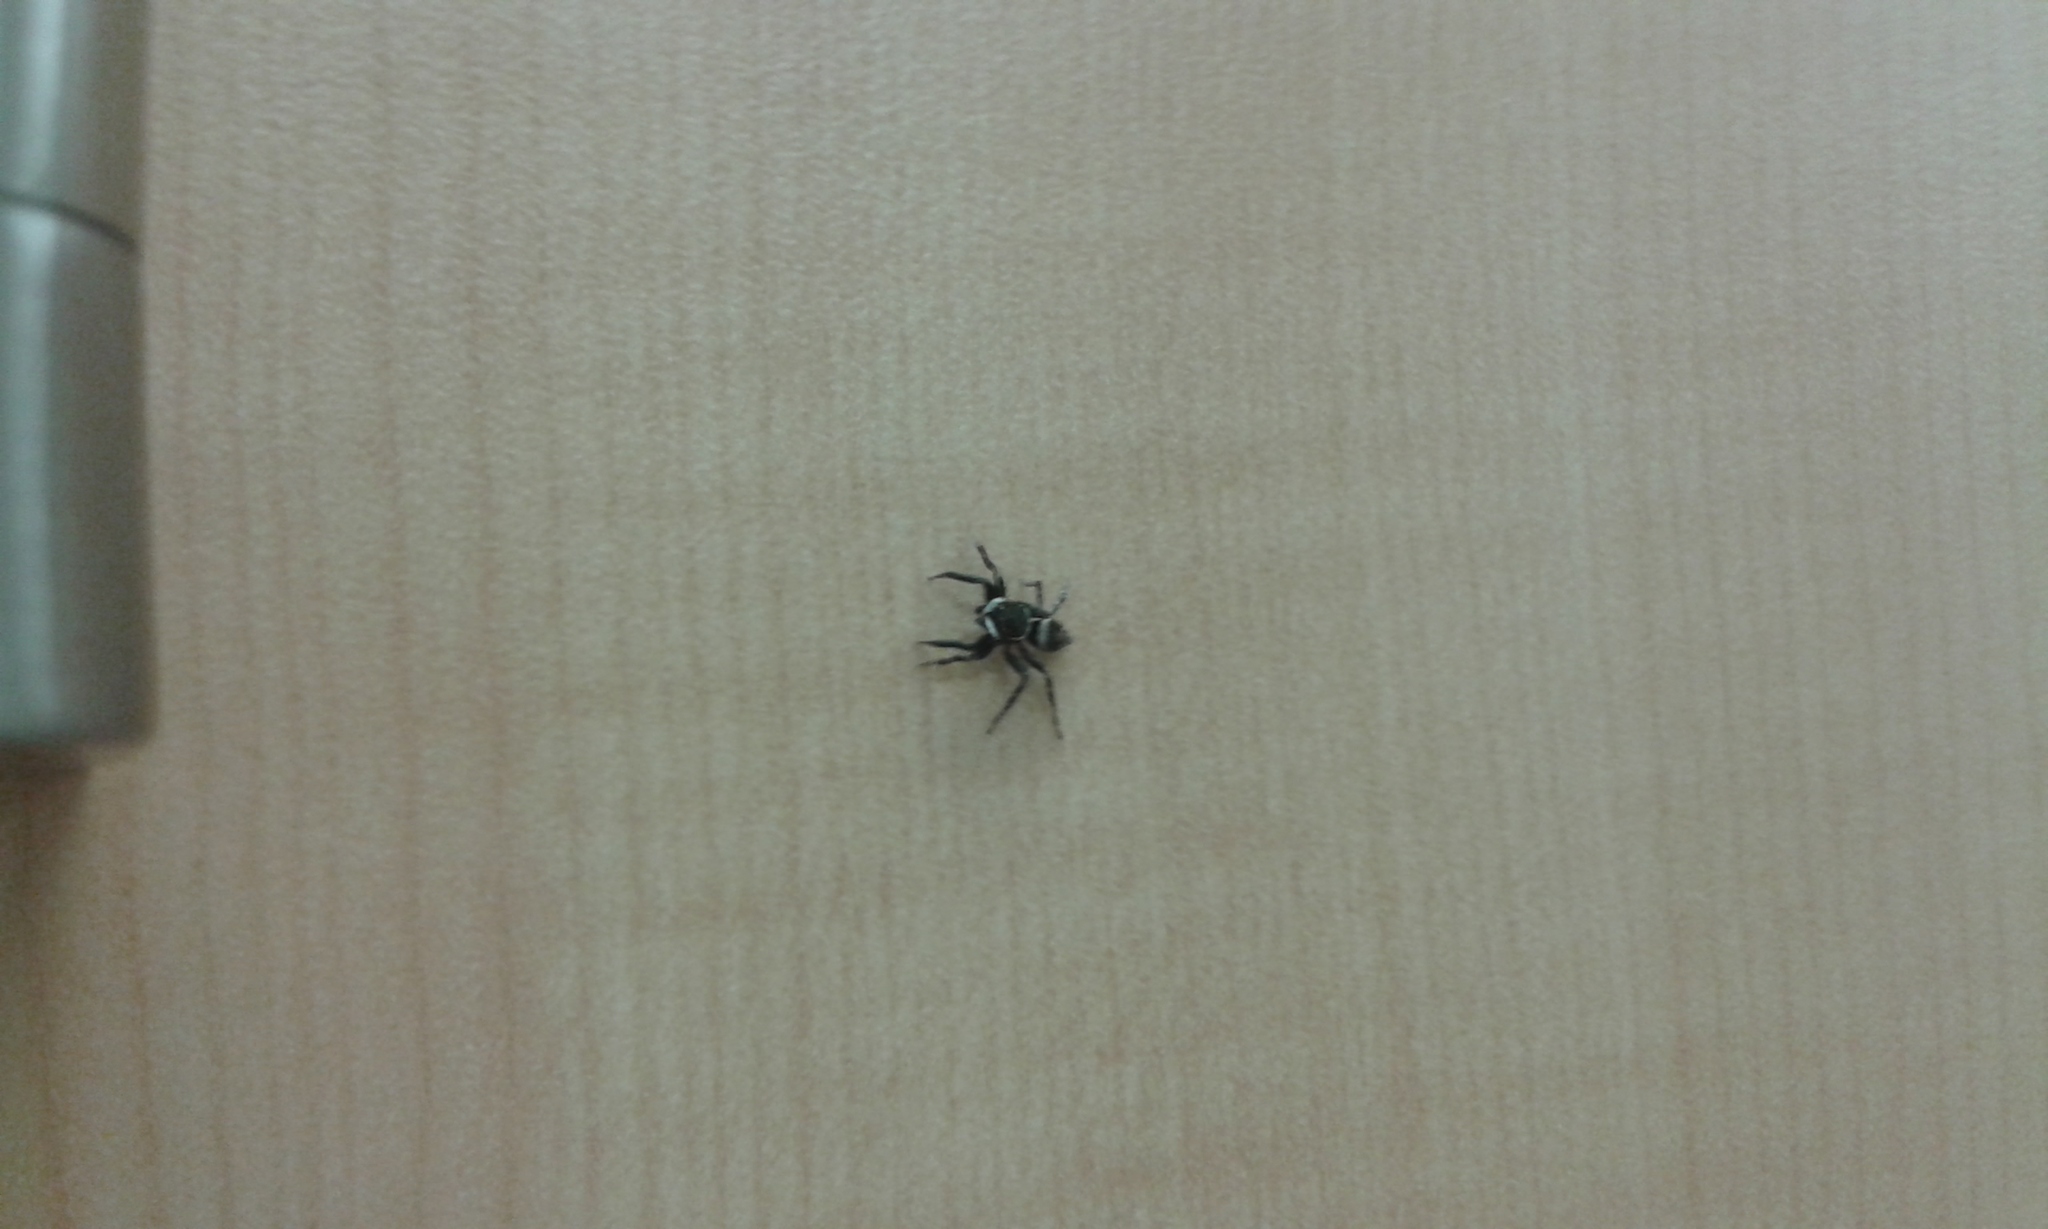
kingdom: Animalia
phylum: Arthropoda
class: Arachnida
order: Araneae
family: Salticidae
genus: Hasarius
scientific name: Hasarius adansoni
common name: Jumping spider
